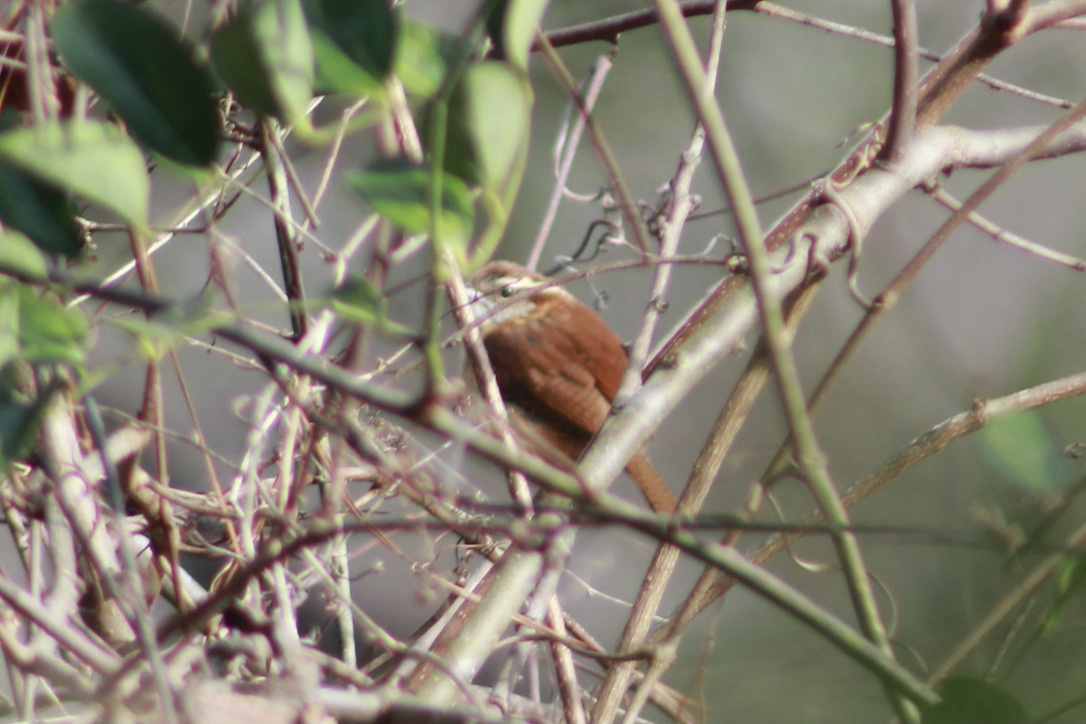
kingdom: Animalia
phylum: Chordata
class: Aves
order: Passeriformes
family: Troglodytidae
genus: Thryothorus
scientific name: Thryothorus ludovicianus
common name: Carolina wren
